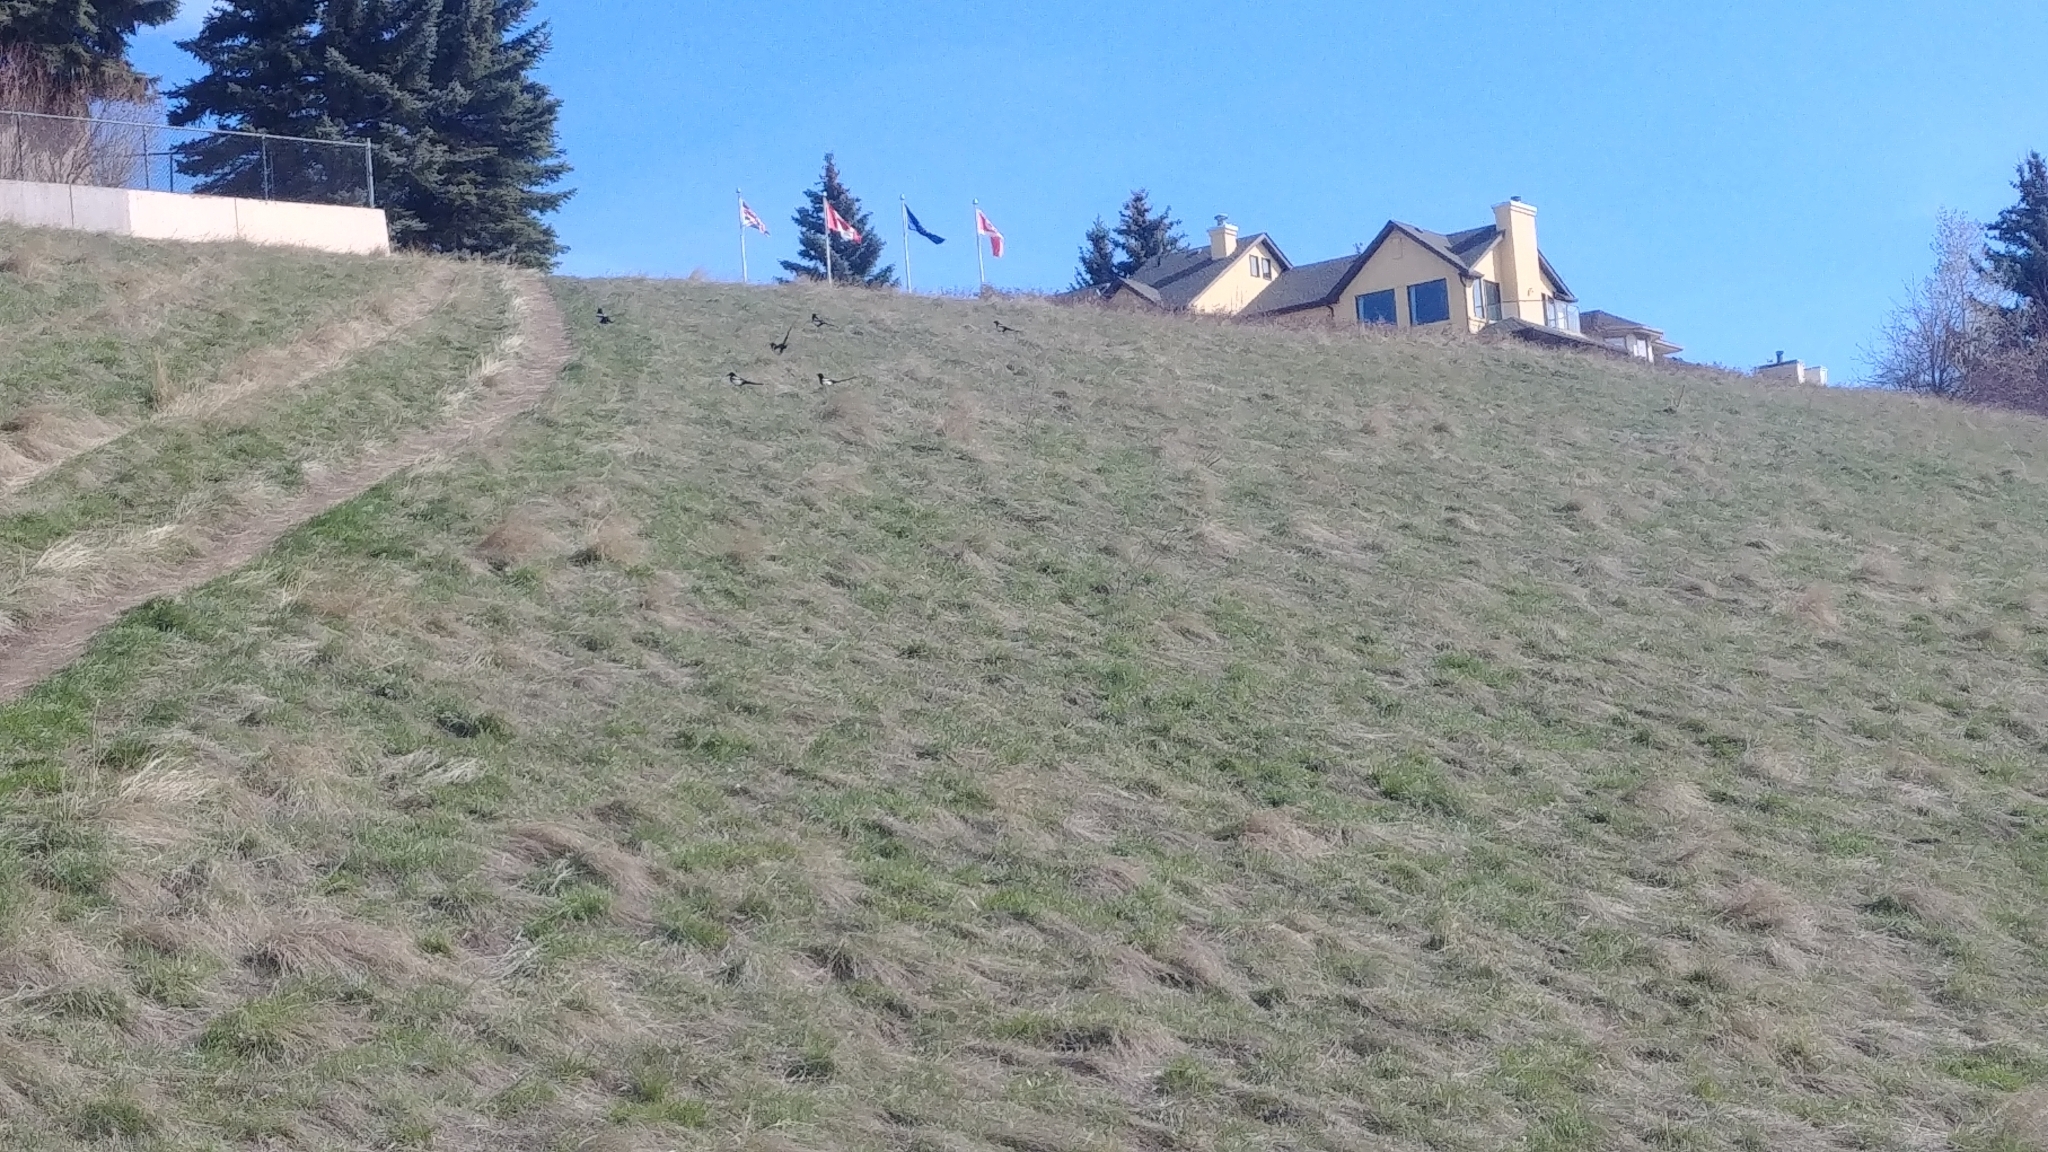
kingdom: Animalia
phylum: Chordata
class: Aves
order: Passeriformes
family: Corvidae
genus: Pica
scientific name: Pica hudsonia
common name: Black-billed magpie
